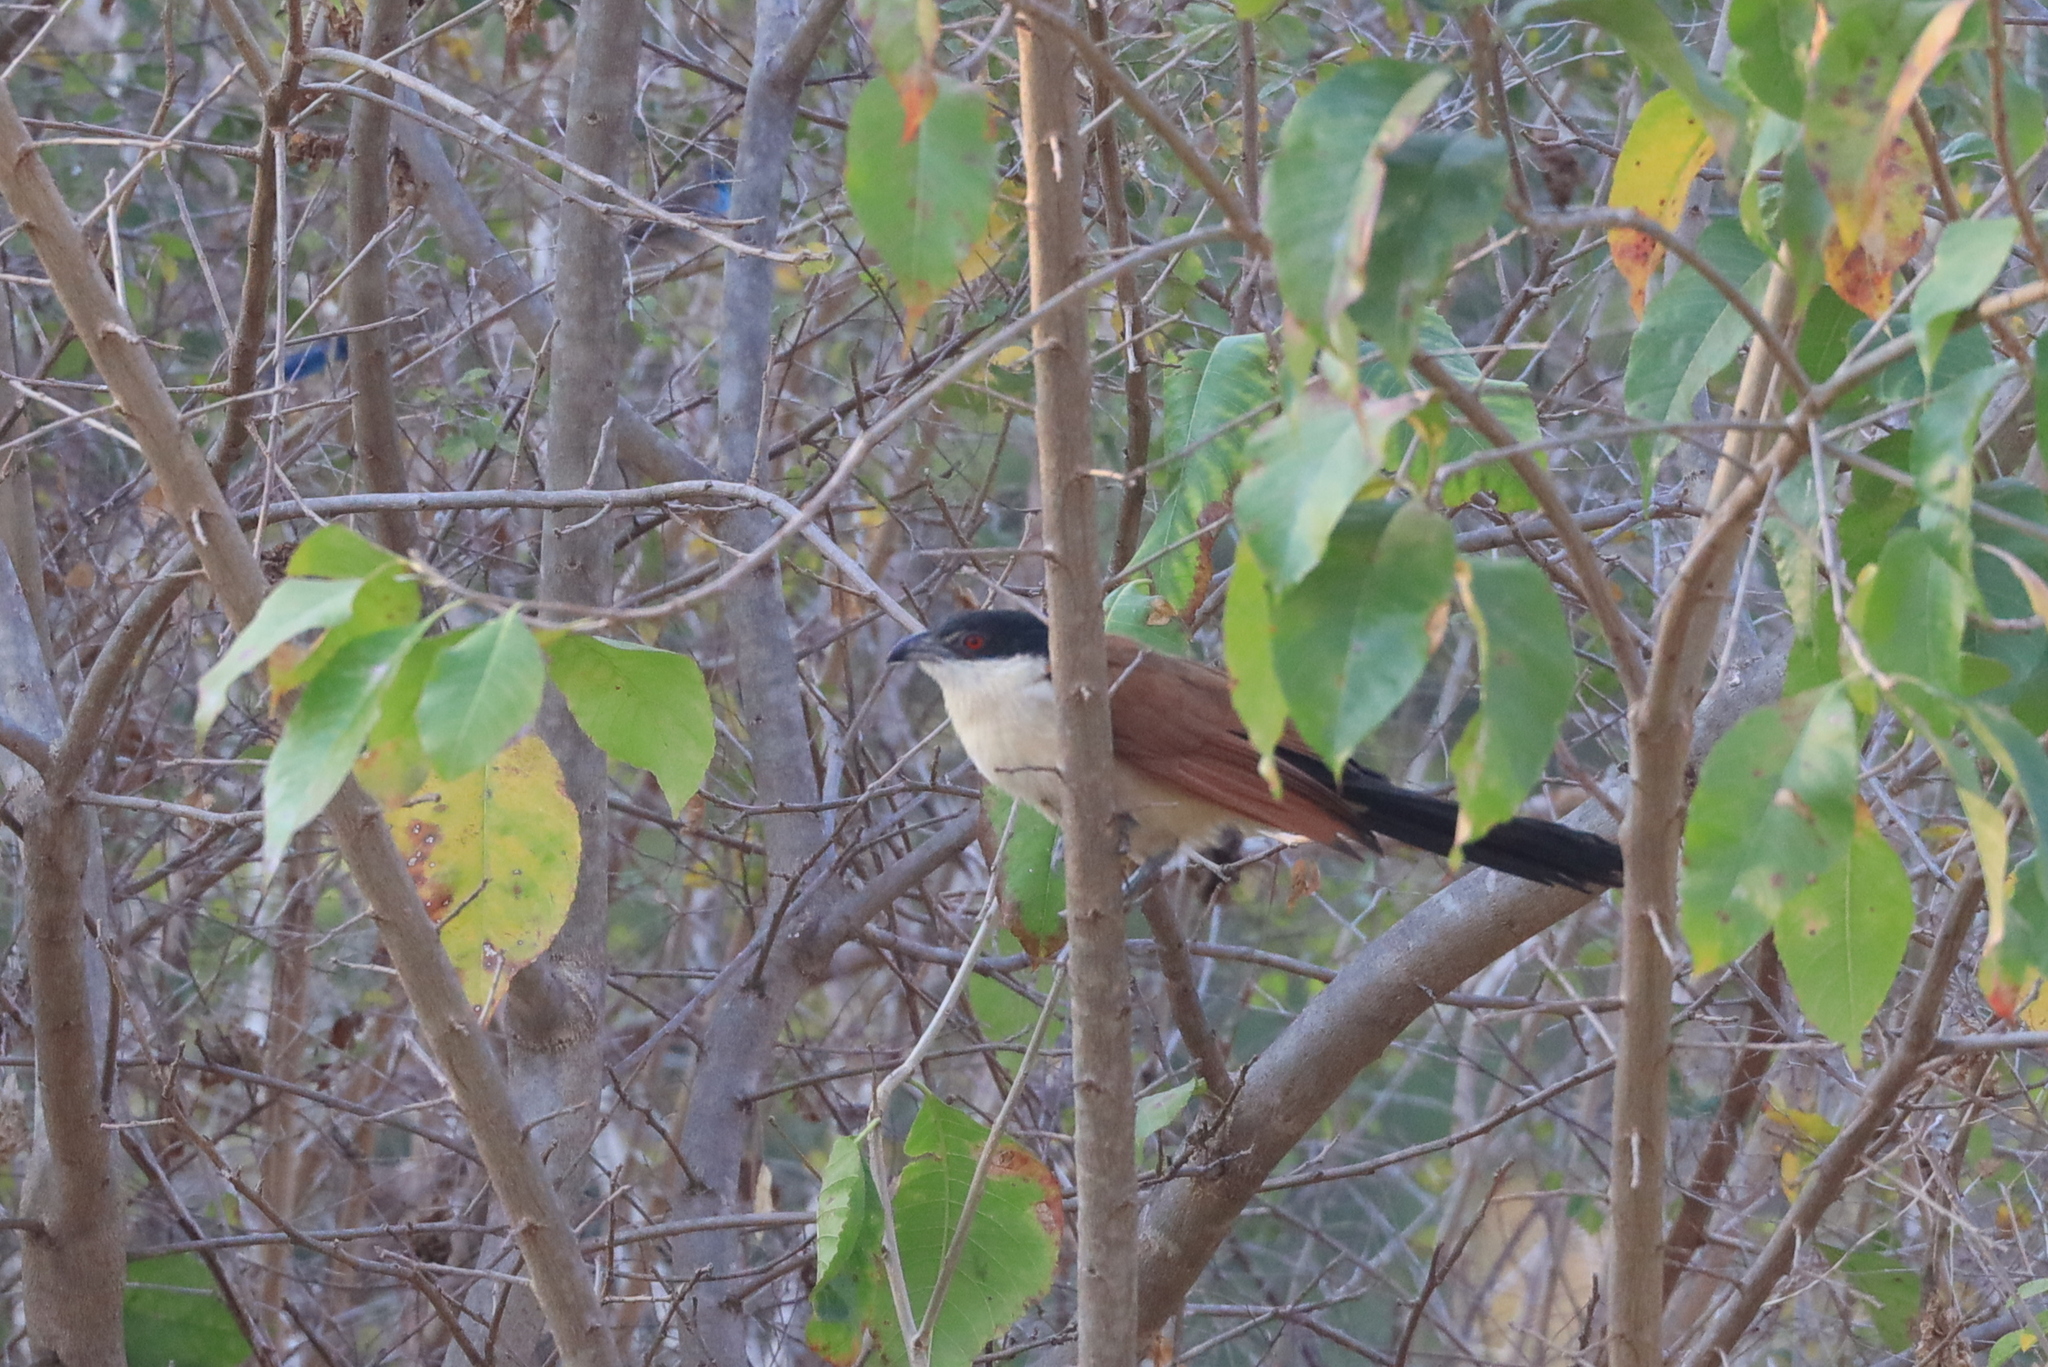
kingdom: Animalia
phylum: Chordata
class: Aves
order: Cuculiformes
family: Cuculidae
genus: Centropus
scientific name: Centropus senegalensis
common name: Senegal coucal
